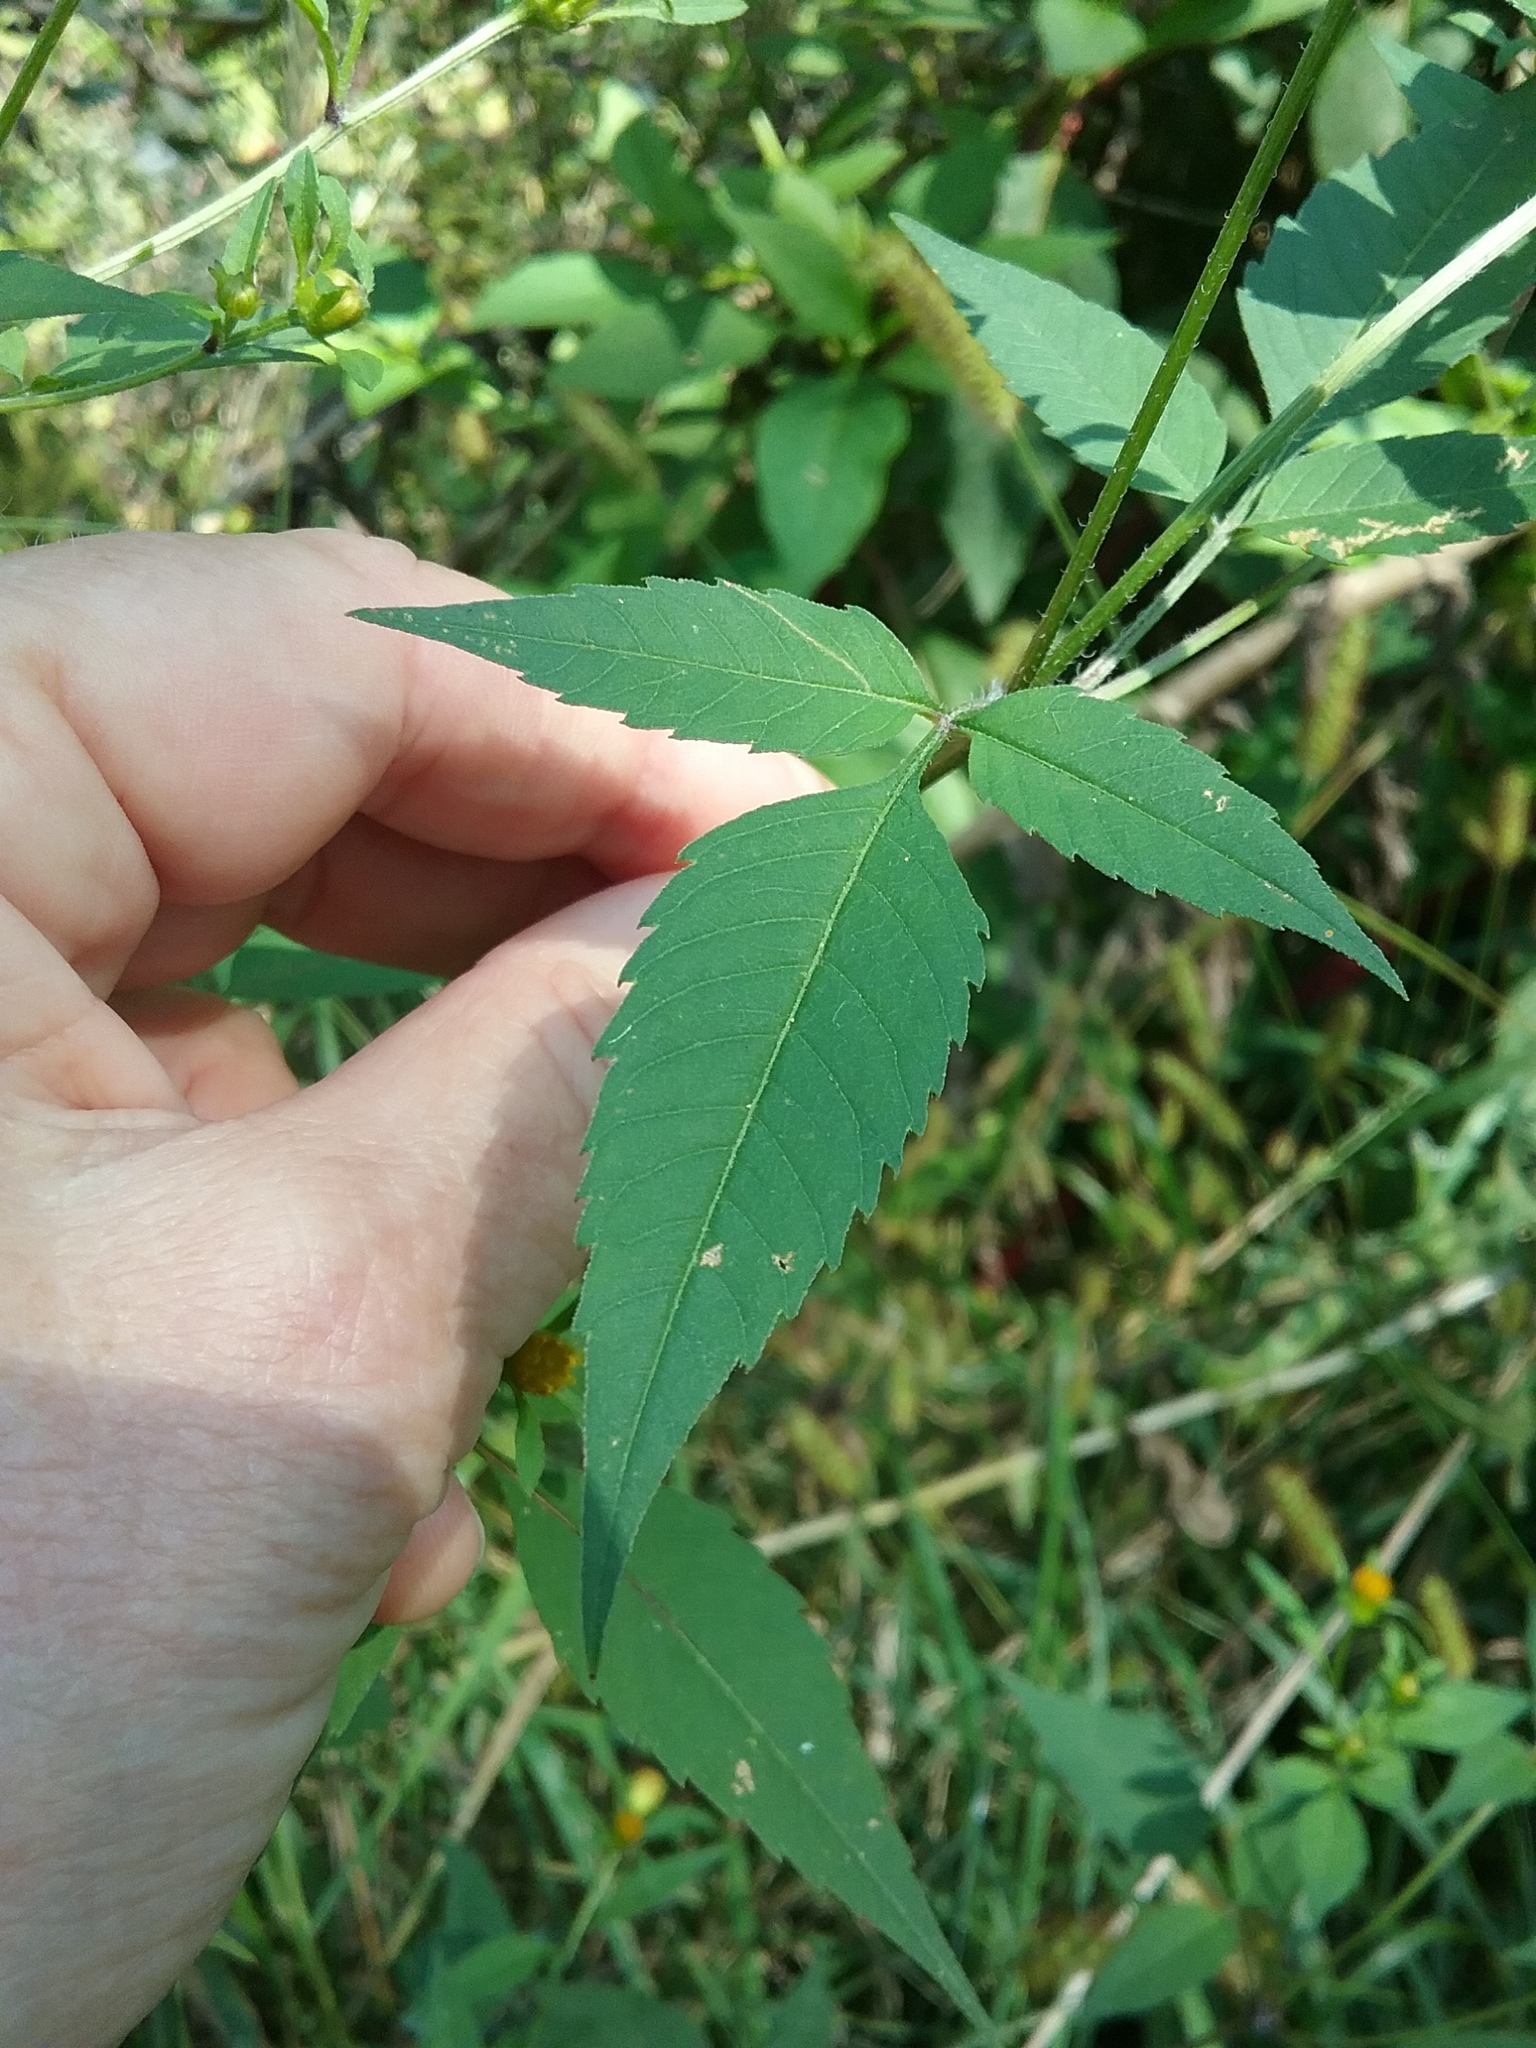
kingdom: Plantae
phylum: Tracheophyta
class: Magnoliopsida
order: Asterales
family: Asteraceae
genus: Bidens
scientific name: Bidens frondosa
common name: Beggarticks
